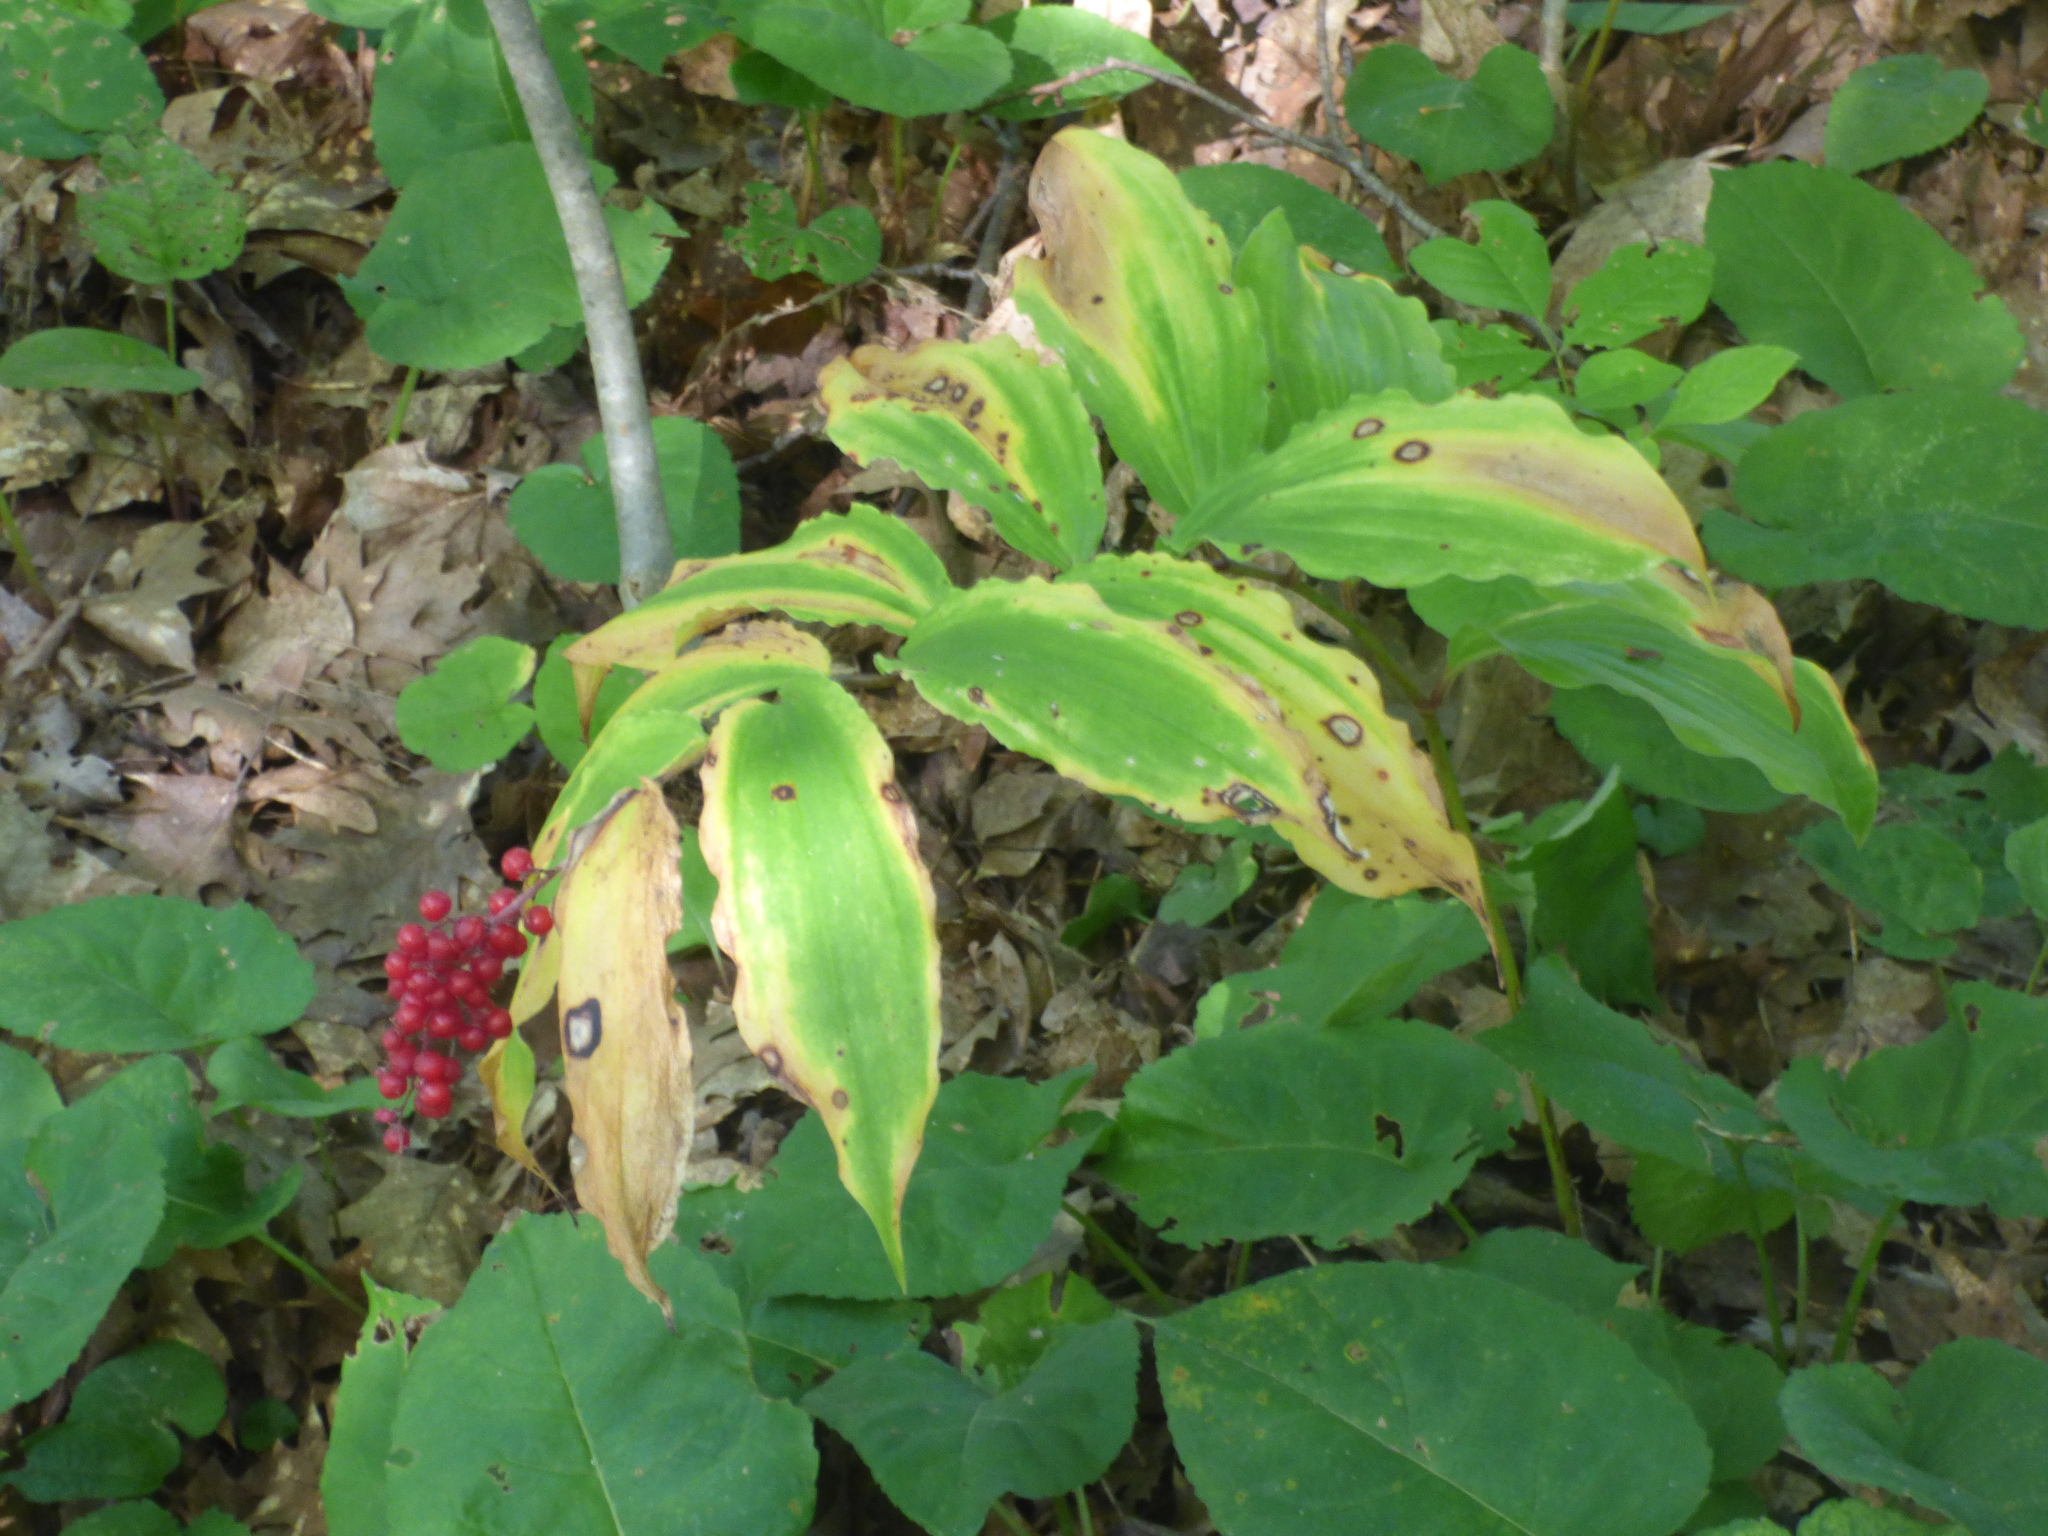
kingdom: Plantae
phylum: Tracheophyta
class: Liliopsida
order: Asparagales
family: Asparagaceae
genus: Maianthemum
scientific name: Maianthemum racemosum
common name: False spikenard
